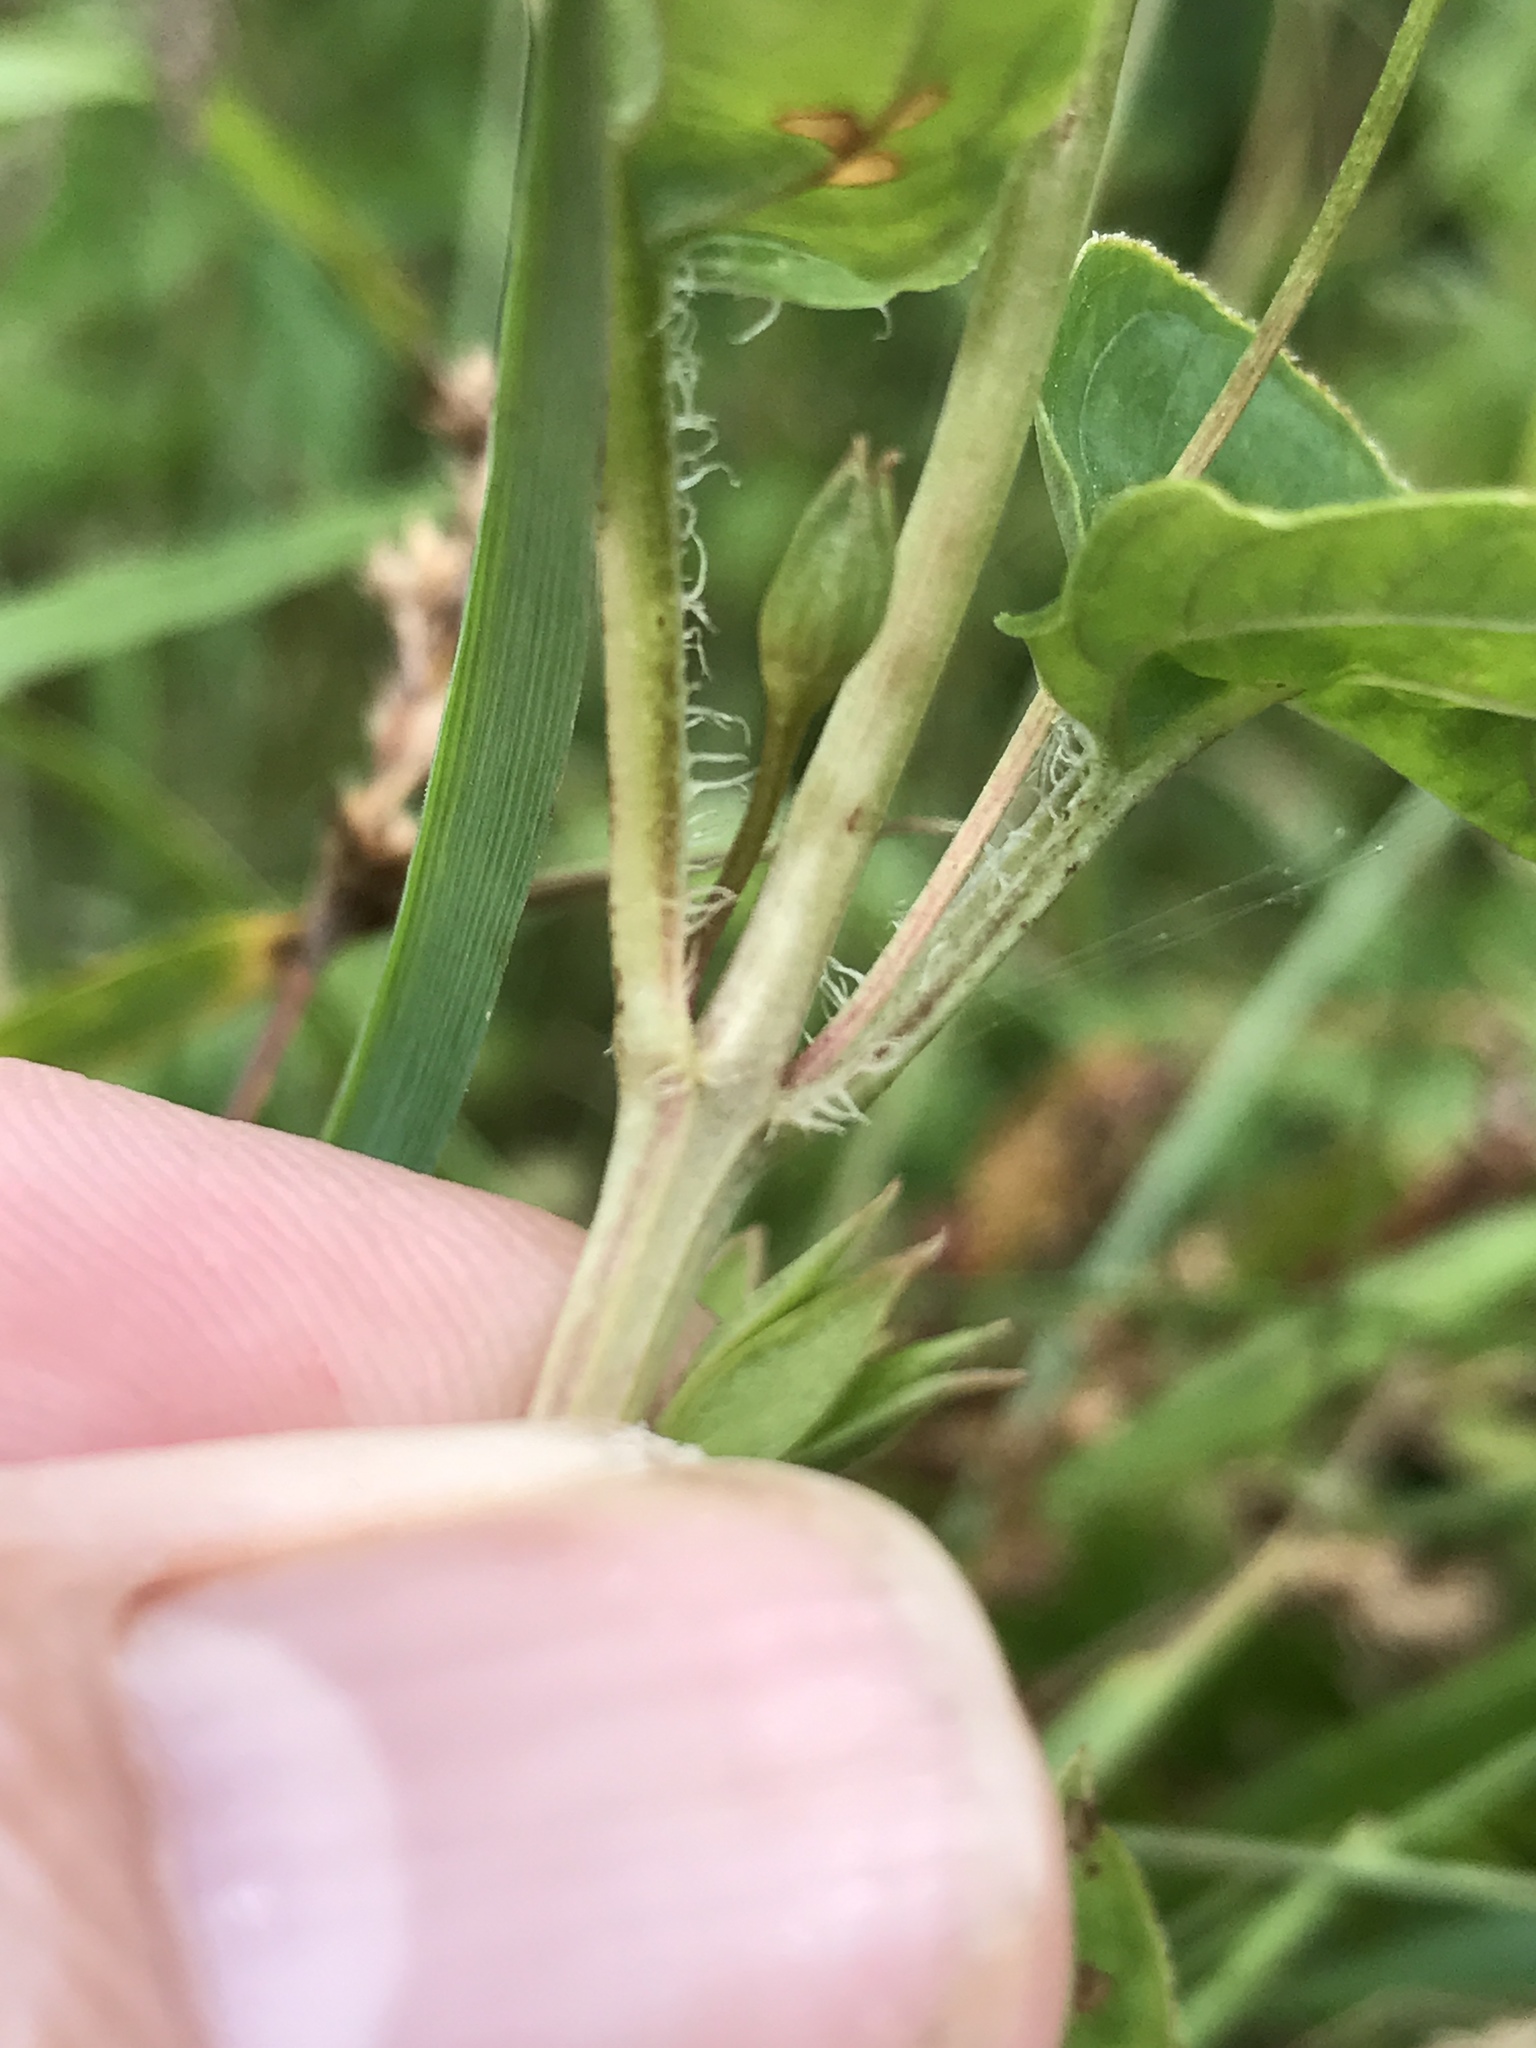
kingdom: Plantae
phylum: Tracheophyta
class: Magnoliopsida
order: Ericales
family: Primulaceae
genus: Lysimachia
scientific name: Lysimachia ciliata
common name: Fringed loosestrife
